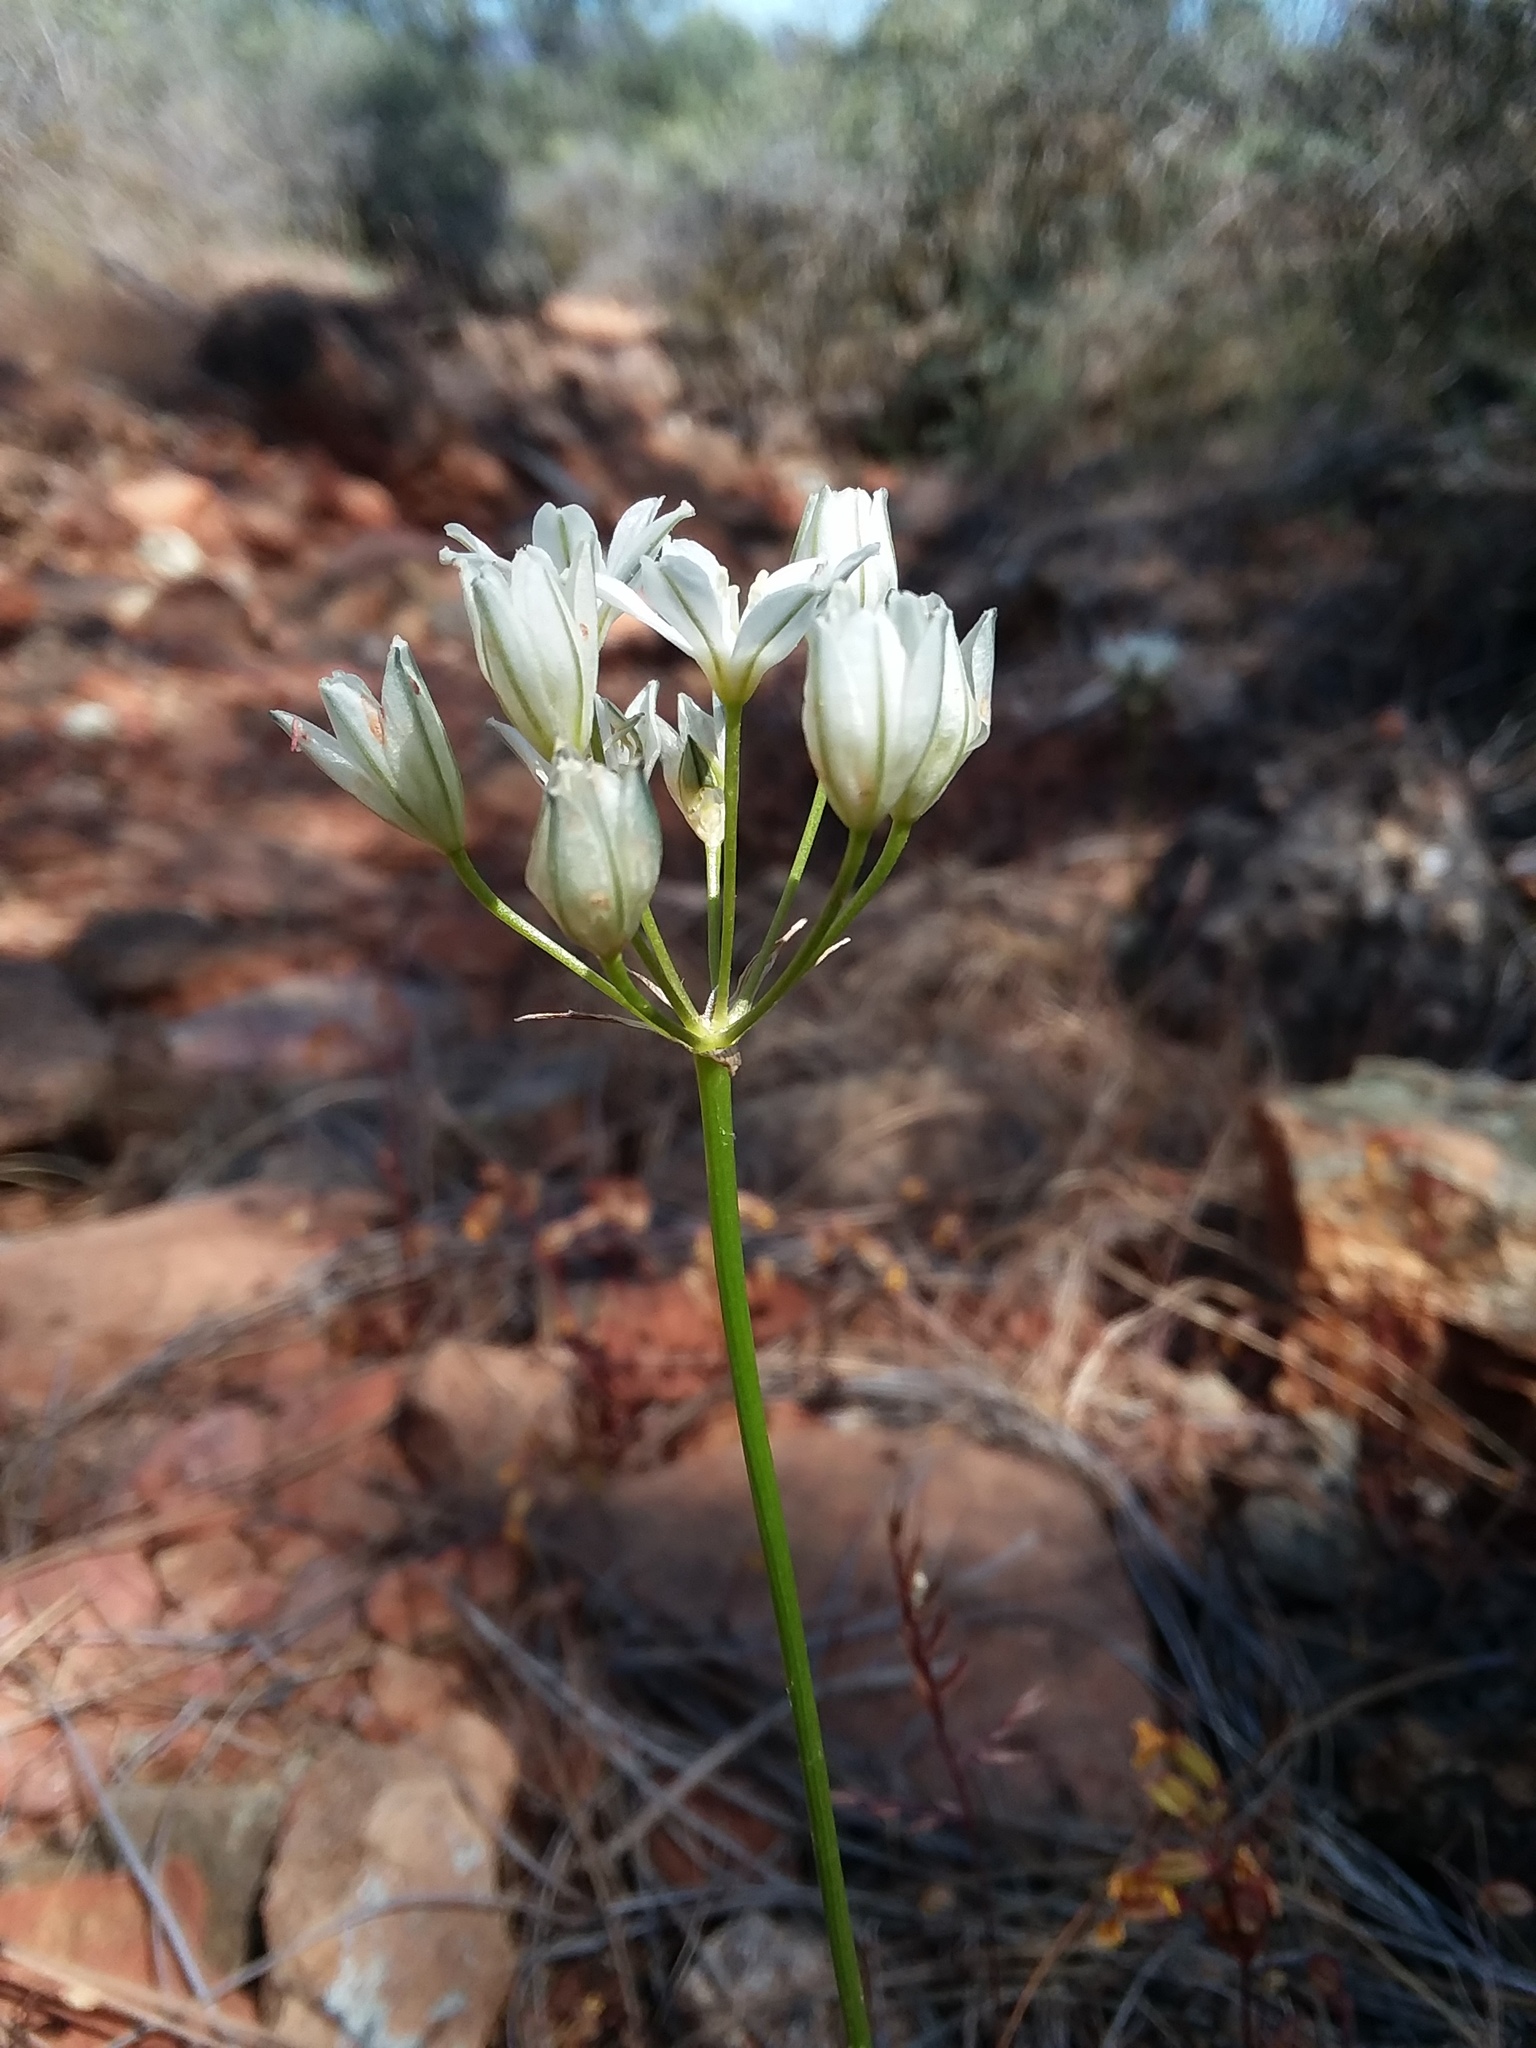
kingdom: Plantae
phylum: Tracheophyta
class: Liliopsida
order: Asparagales
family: Asparagaceae
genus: Triteleia
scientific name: Triteleia hyacinthina
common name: White brodiaea
